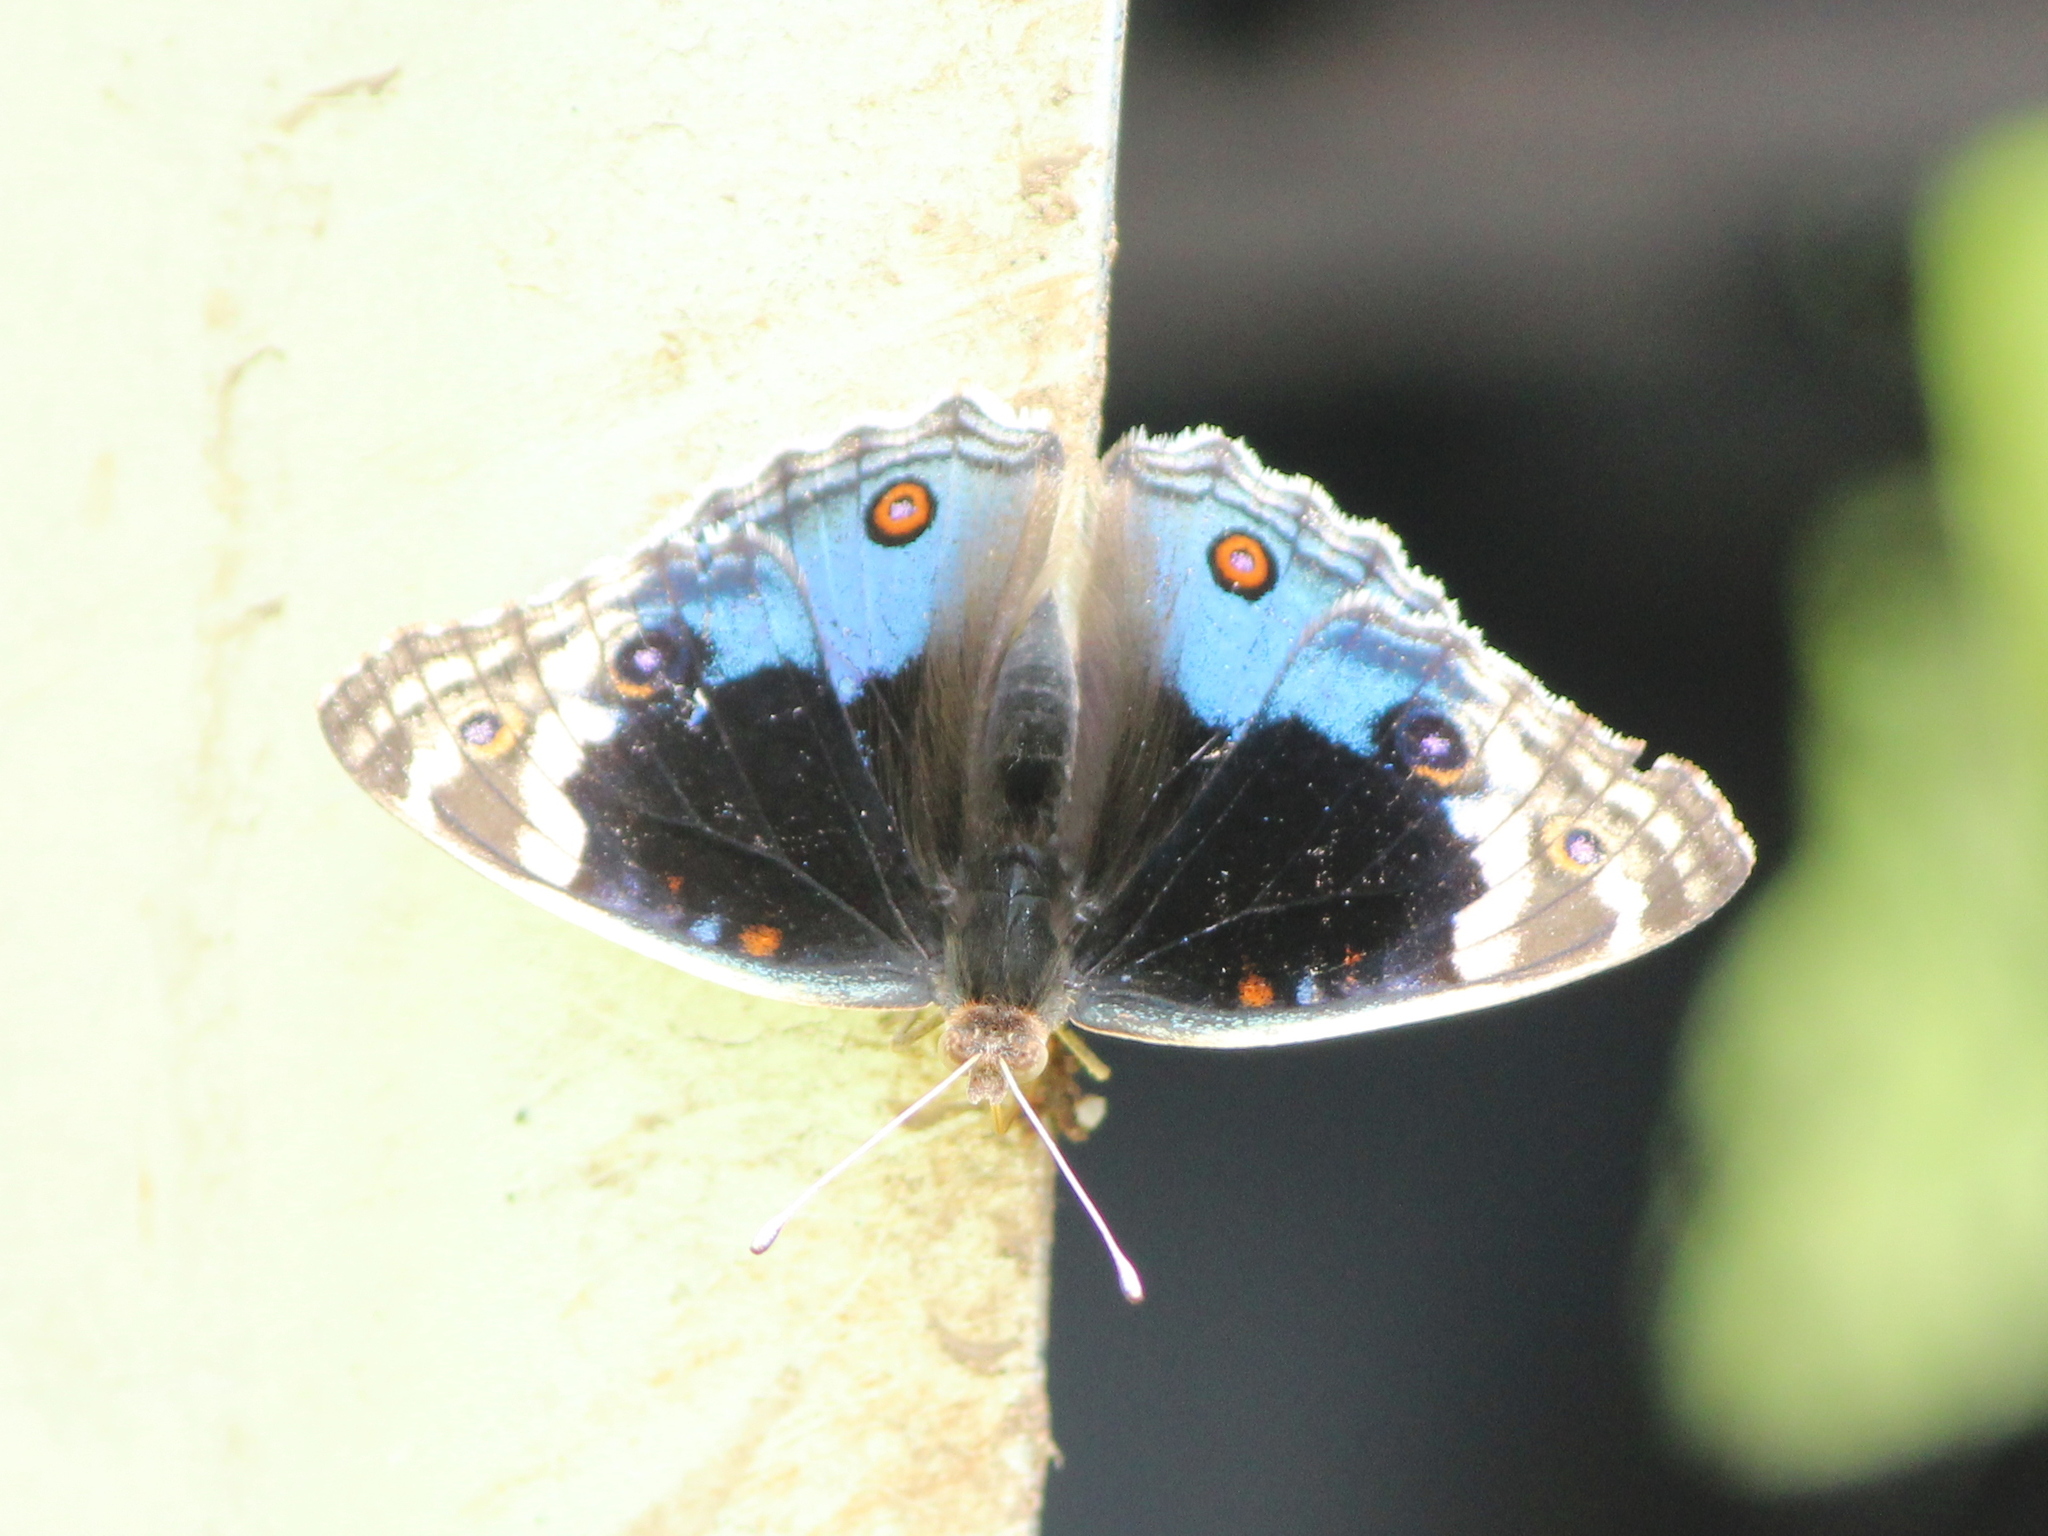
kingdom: Animalia
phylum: Arthropoda
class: Insecta
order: Lepidoptera
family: Nymphalidae
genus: Junonia
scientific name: Junonia orithya
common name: Blue pansy
